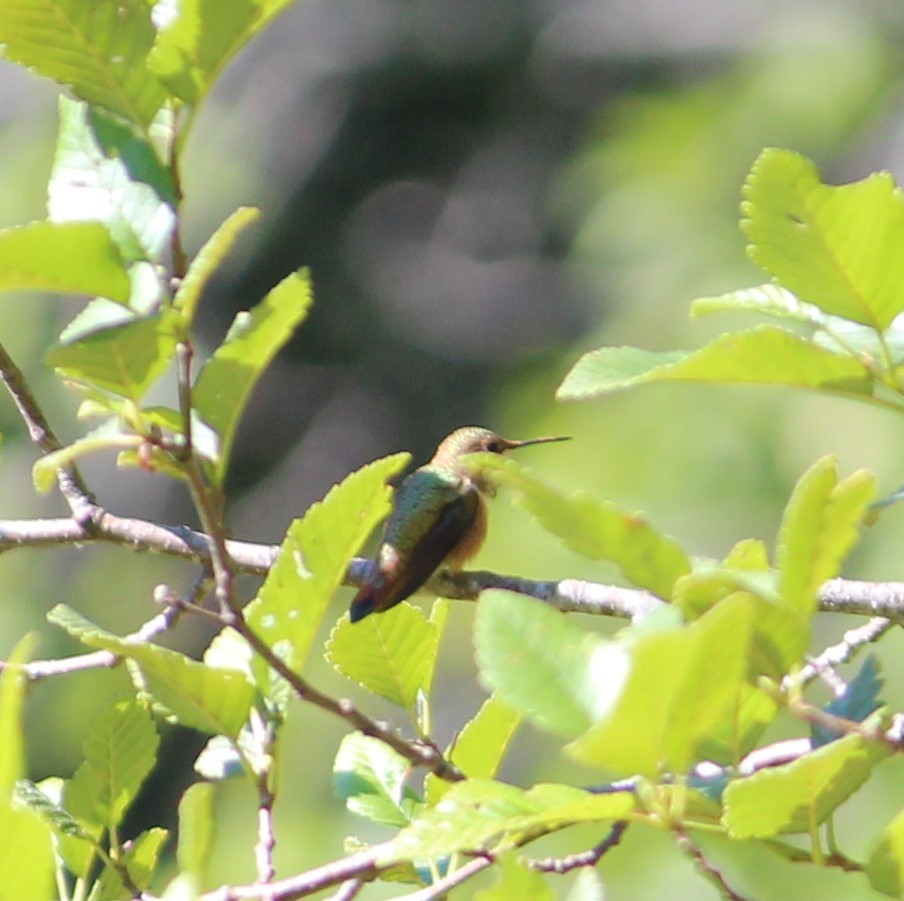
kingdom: Animalia
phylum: Chordata
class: Aves
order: Apodiformes
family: Trochilidae
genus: Selasphorus
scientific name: Selasphorus rufus
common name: Rufous hummingbird
